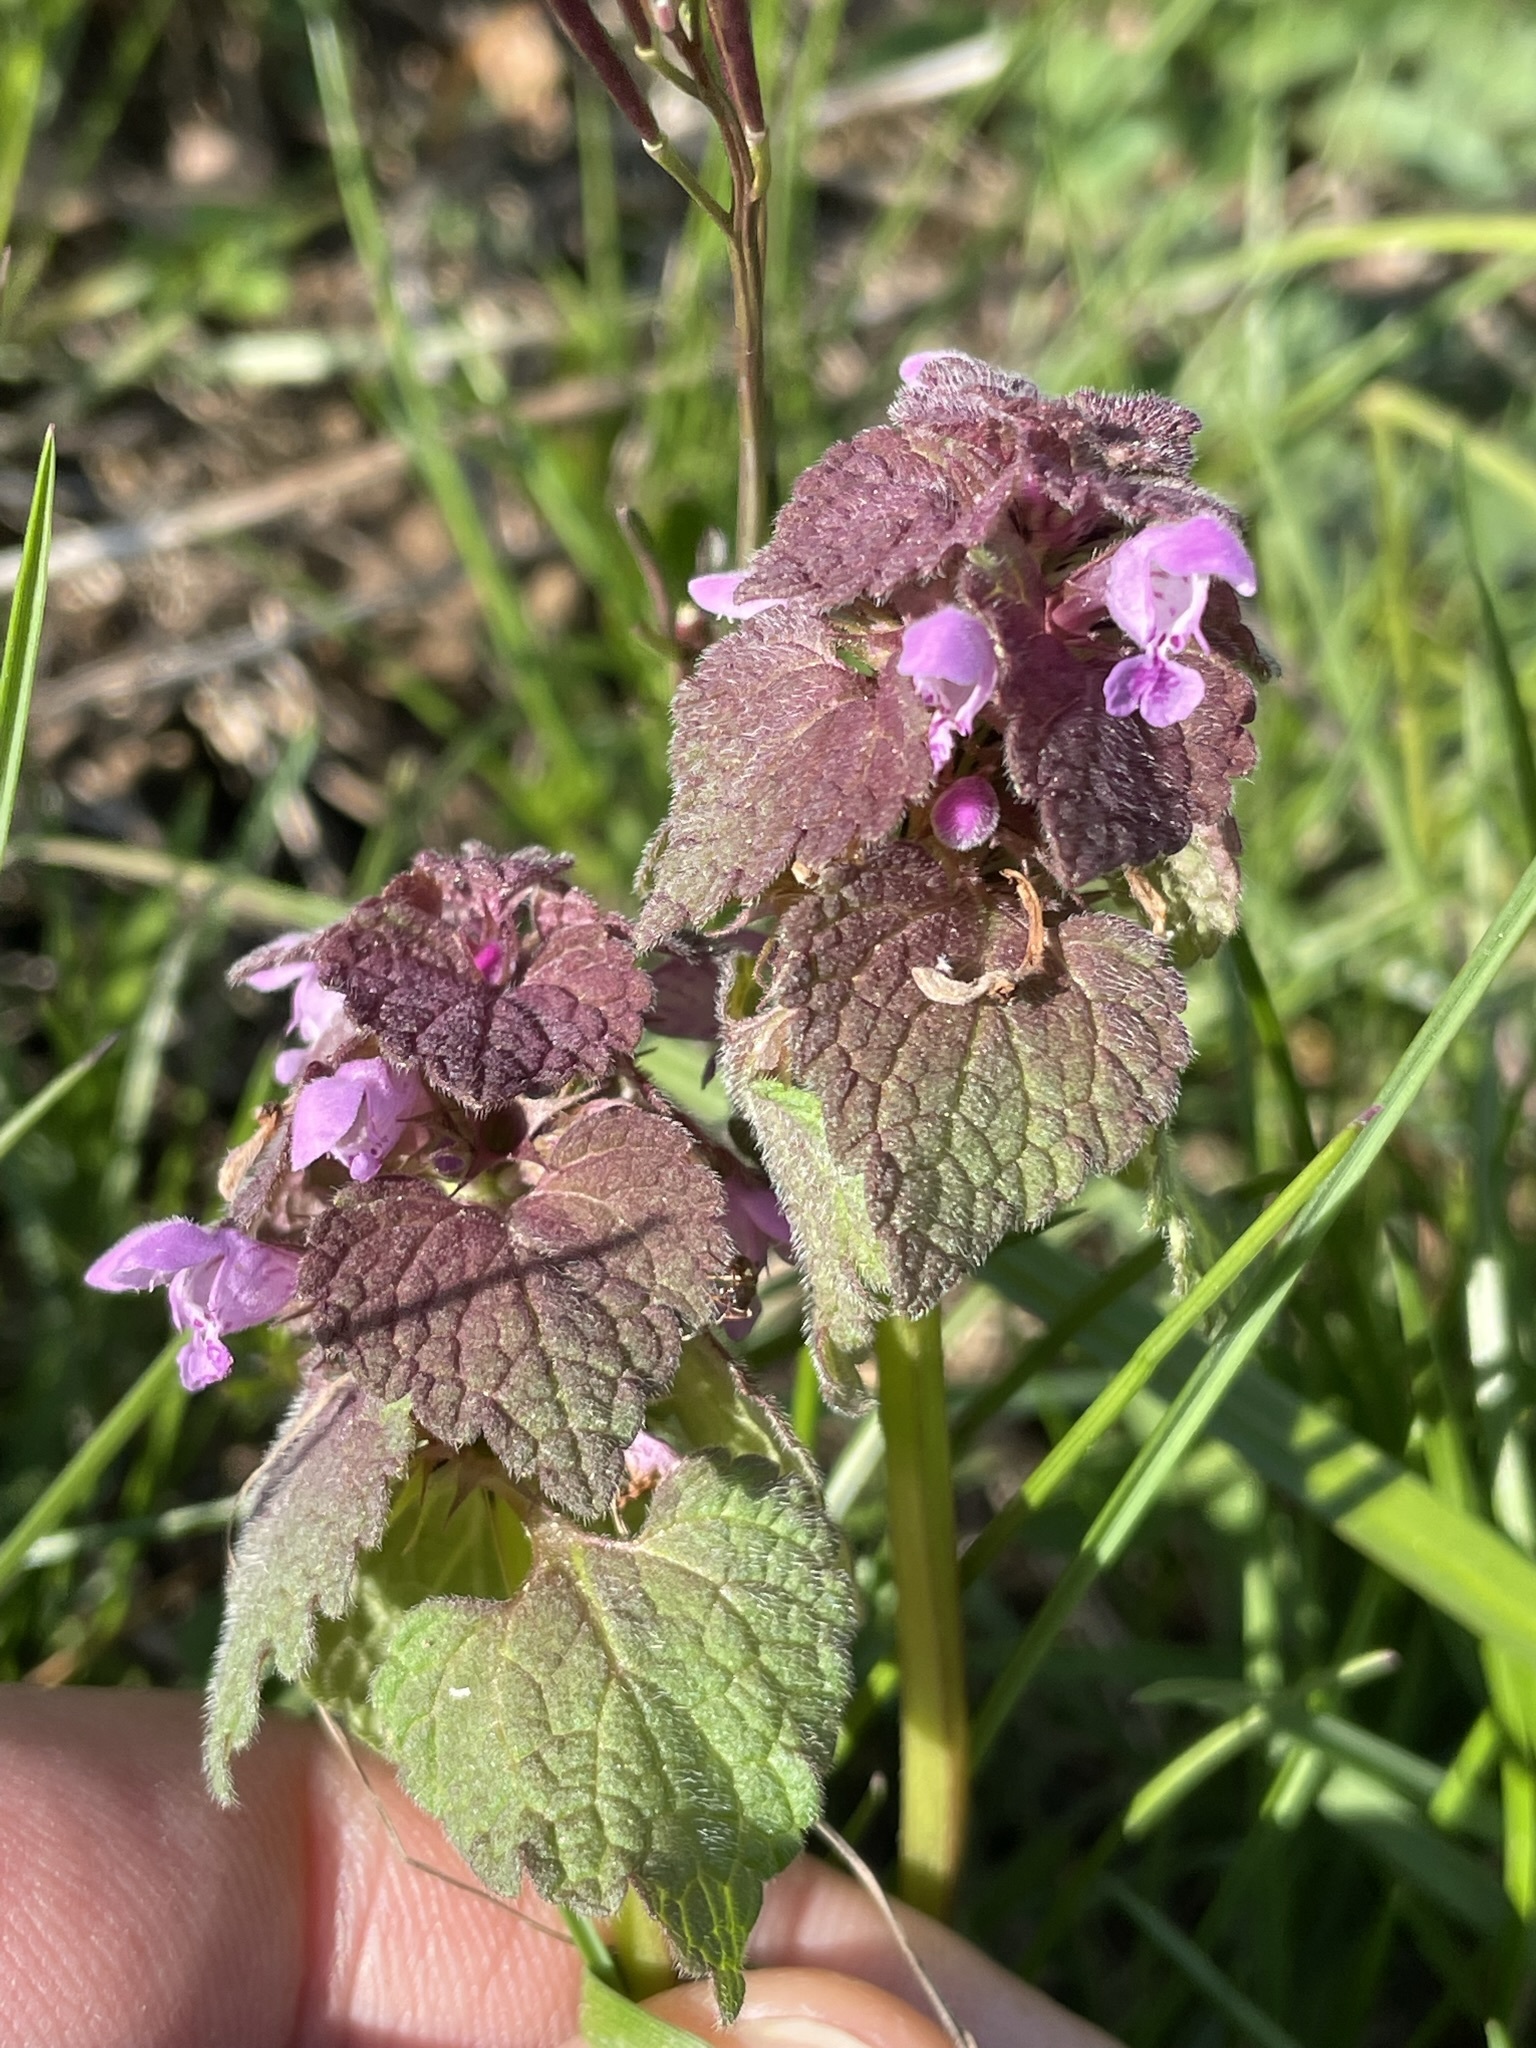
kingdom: Plantae
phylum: Tracheophyta
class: Magnoliopsida
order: Lamiales
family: Lamiaceae
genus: Lamium
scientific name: Lamium purpureum
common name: Red dead-nettle
